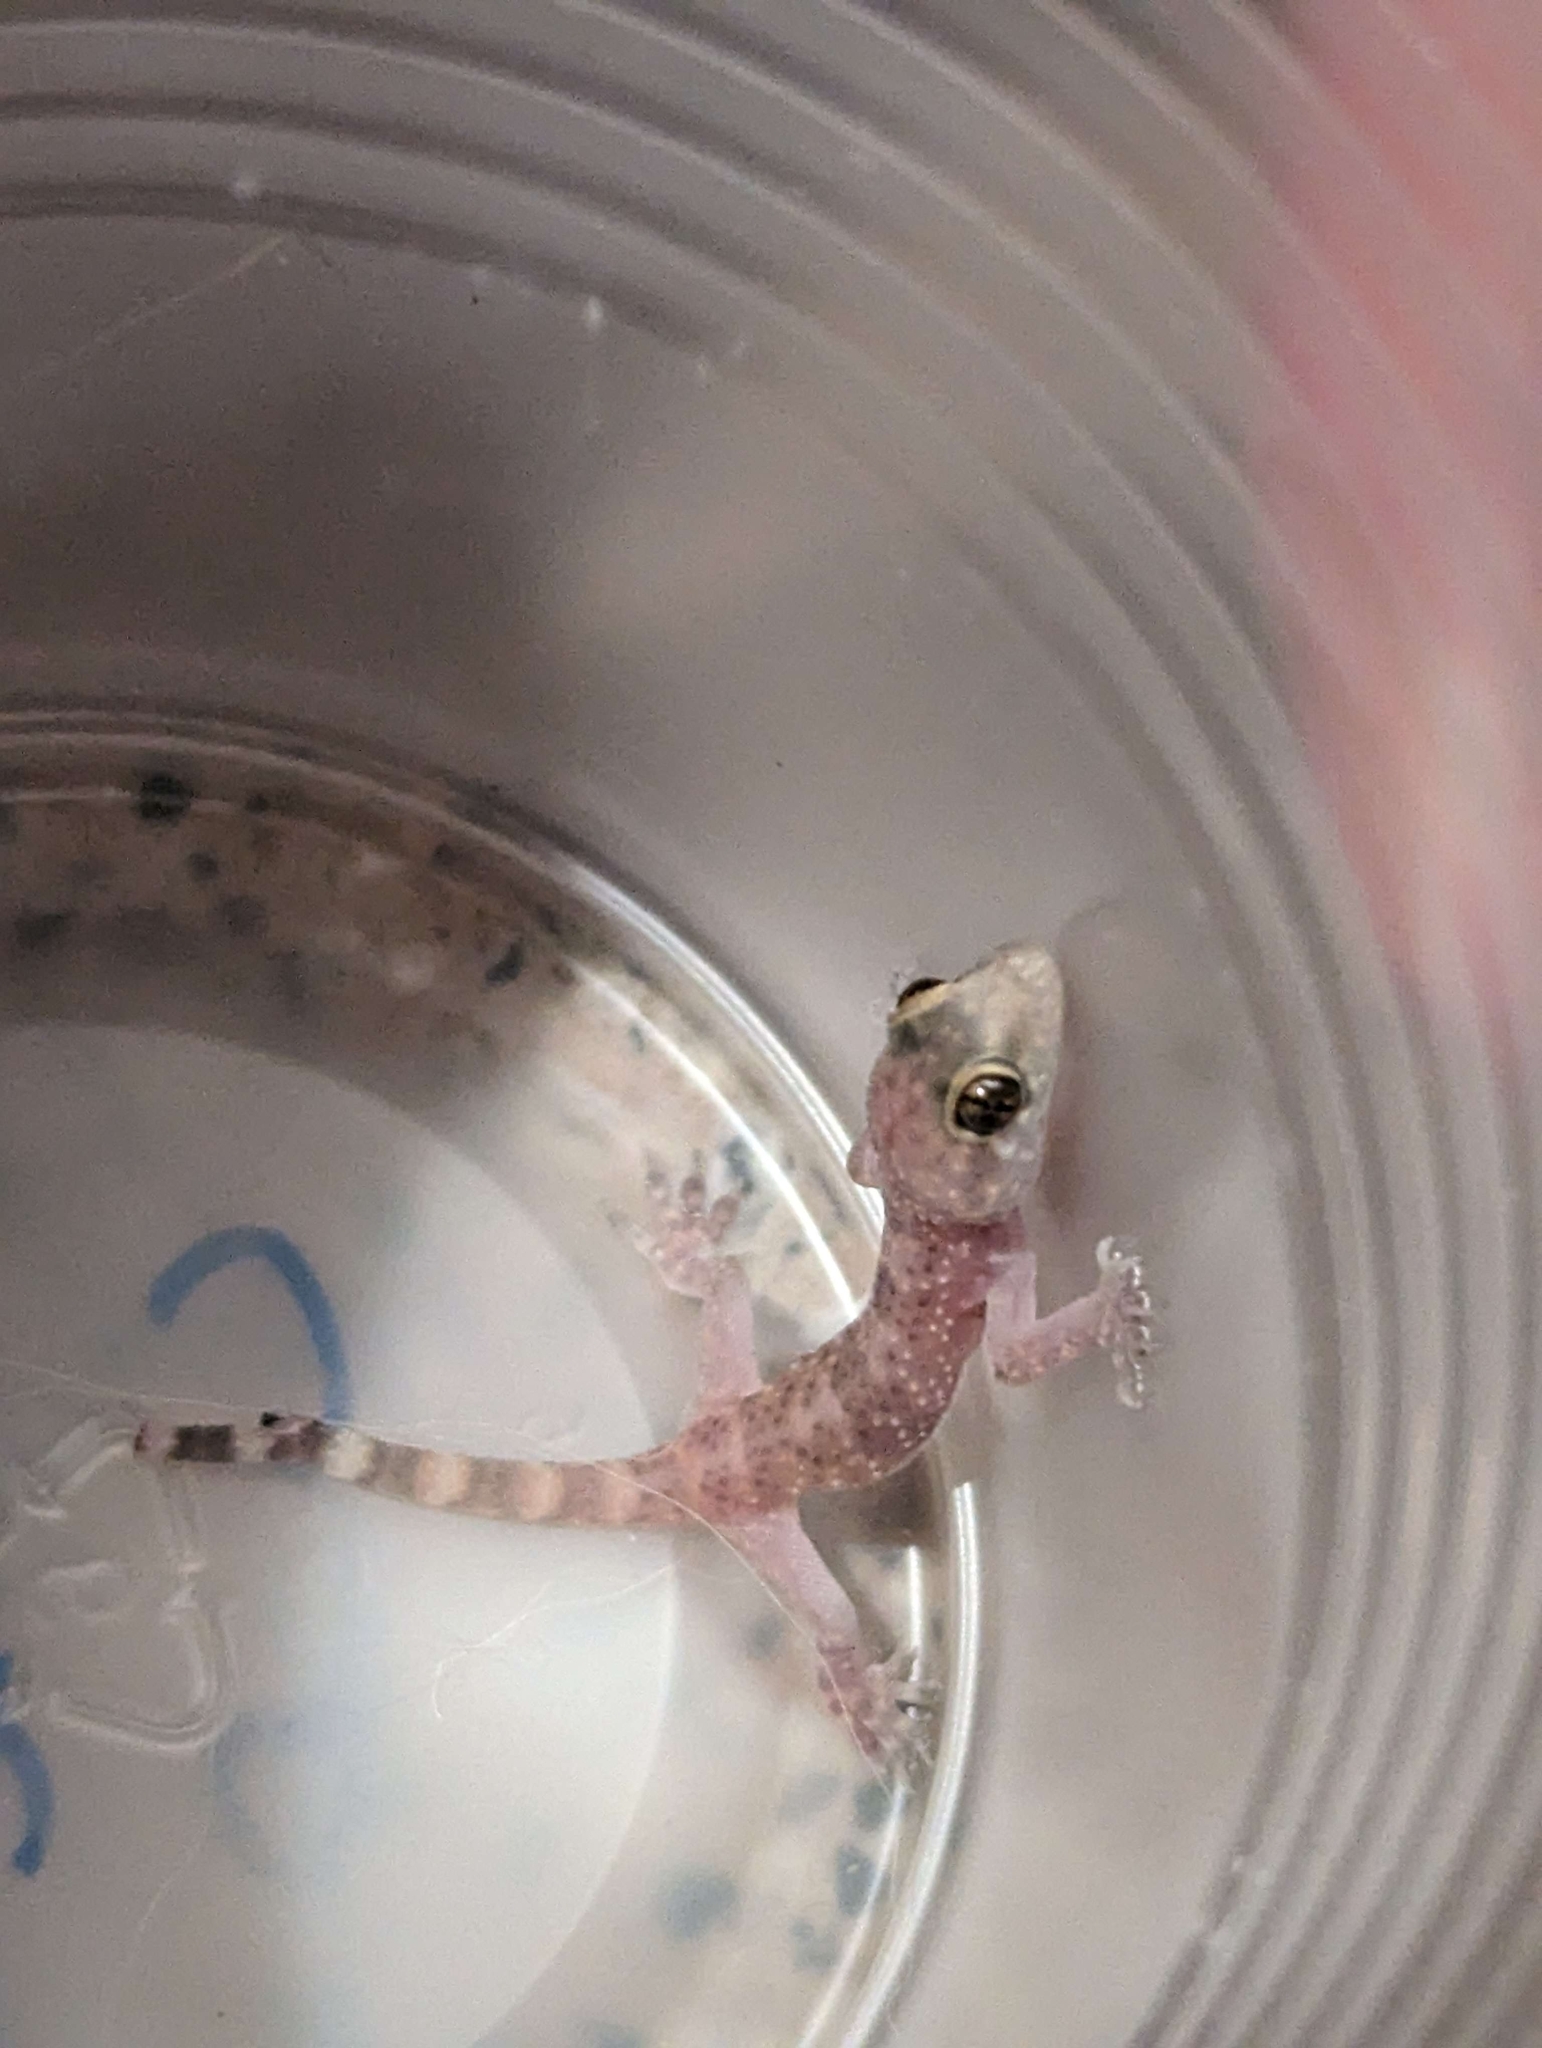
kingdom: Animalia
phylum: Chordata
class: Squamata
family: Gekkonidae
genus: Hemidactylus
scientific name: Hemidactylus turcicus
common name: Turkish gecko
